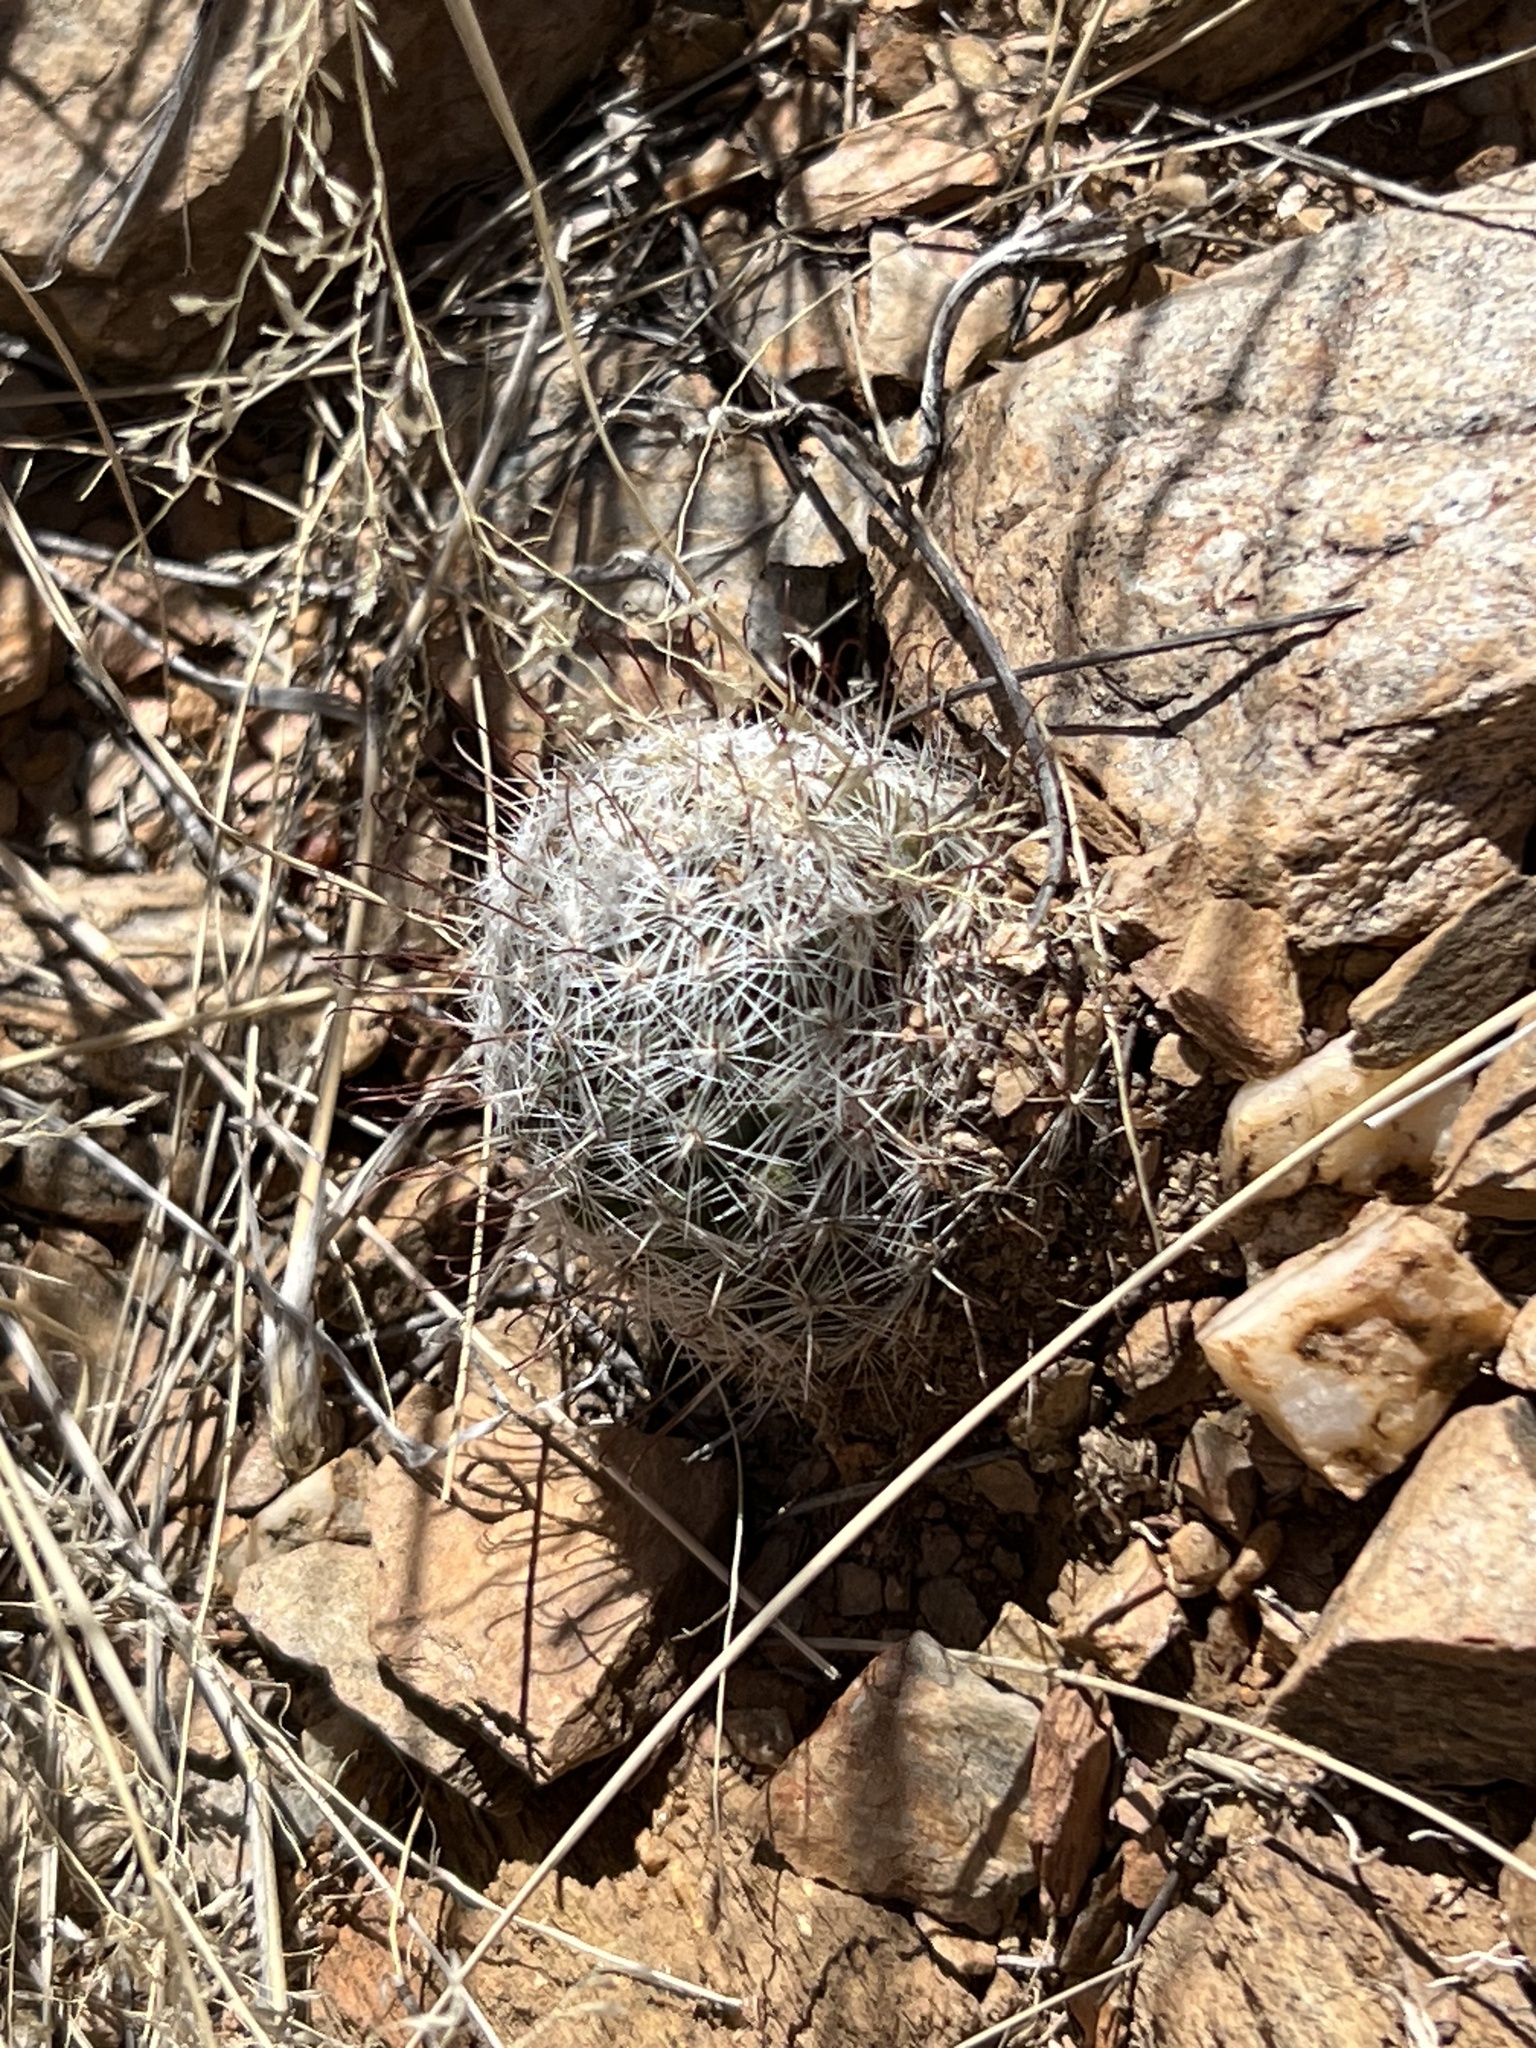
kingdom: Plantae
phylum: Tracheophyta
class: Magnoliopsida
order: Caryophyllales
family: Cactaceae
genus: Cochemiea
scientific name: Cochemiea grahamii
